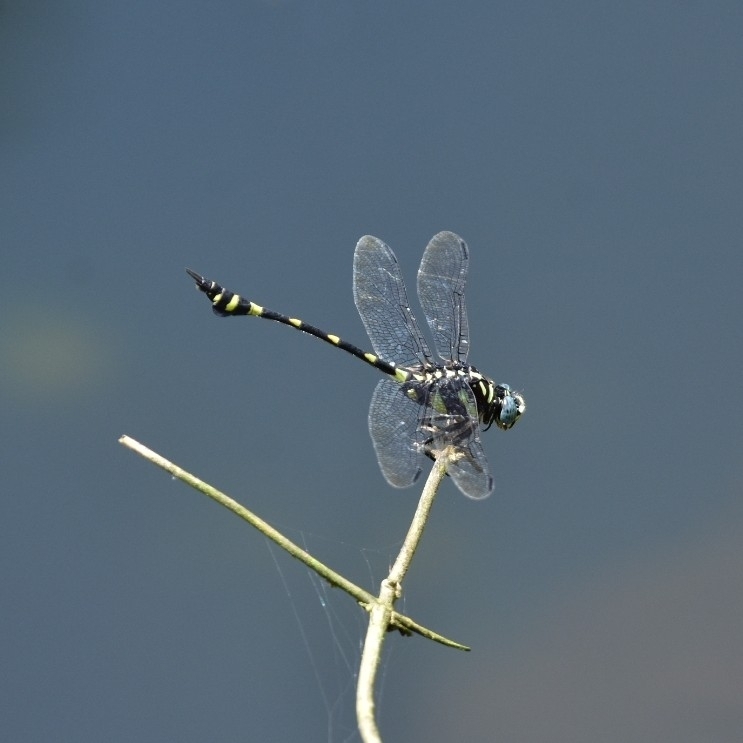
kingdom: Animalia
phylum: Arthropoda
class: Insecta
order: Odonata
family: Gomphidae
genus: Ictinogomphus
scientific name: Ictinogomphus rapax
